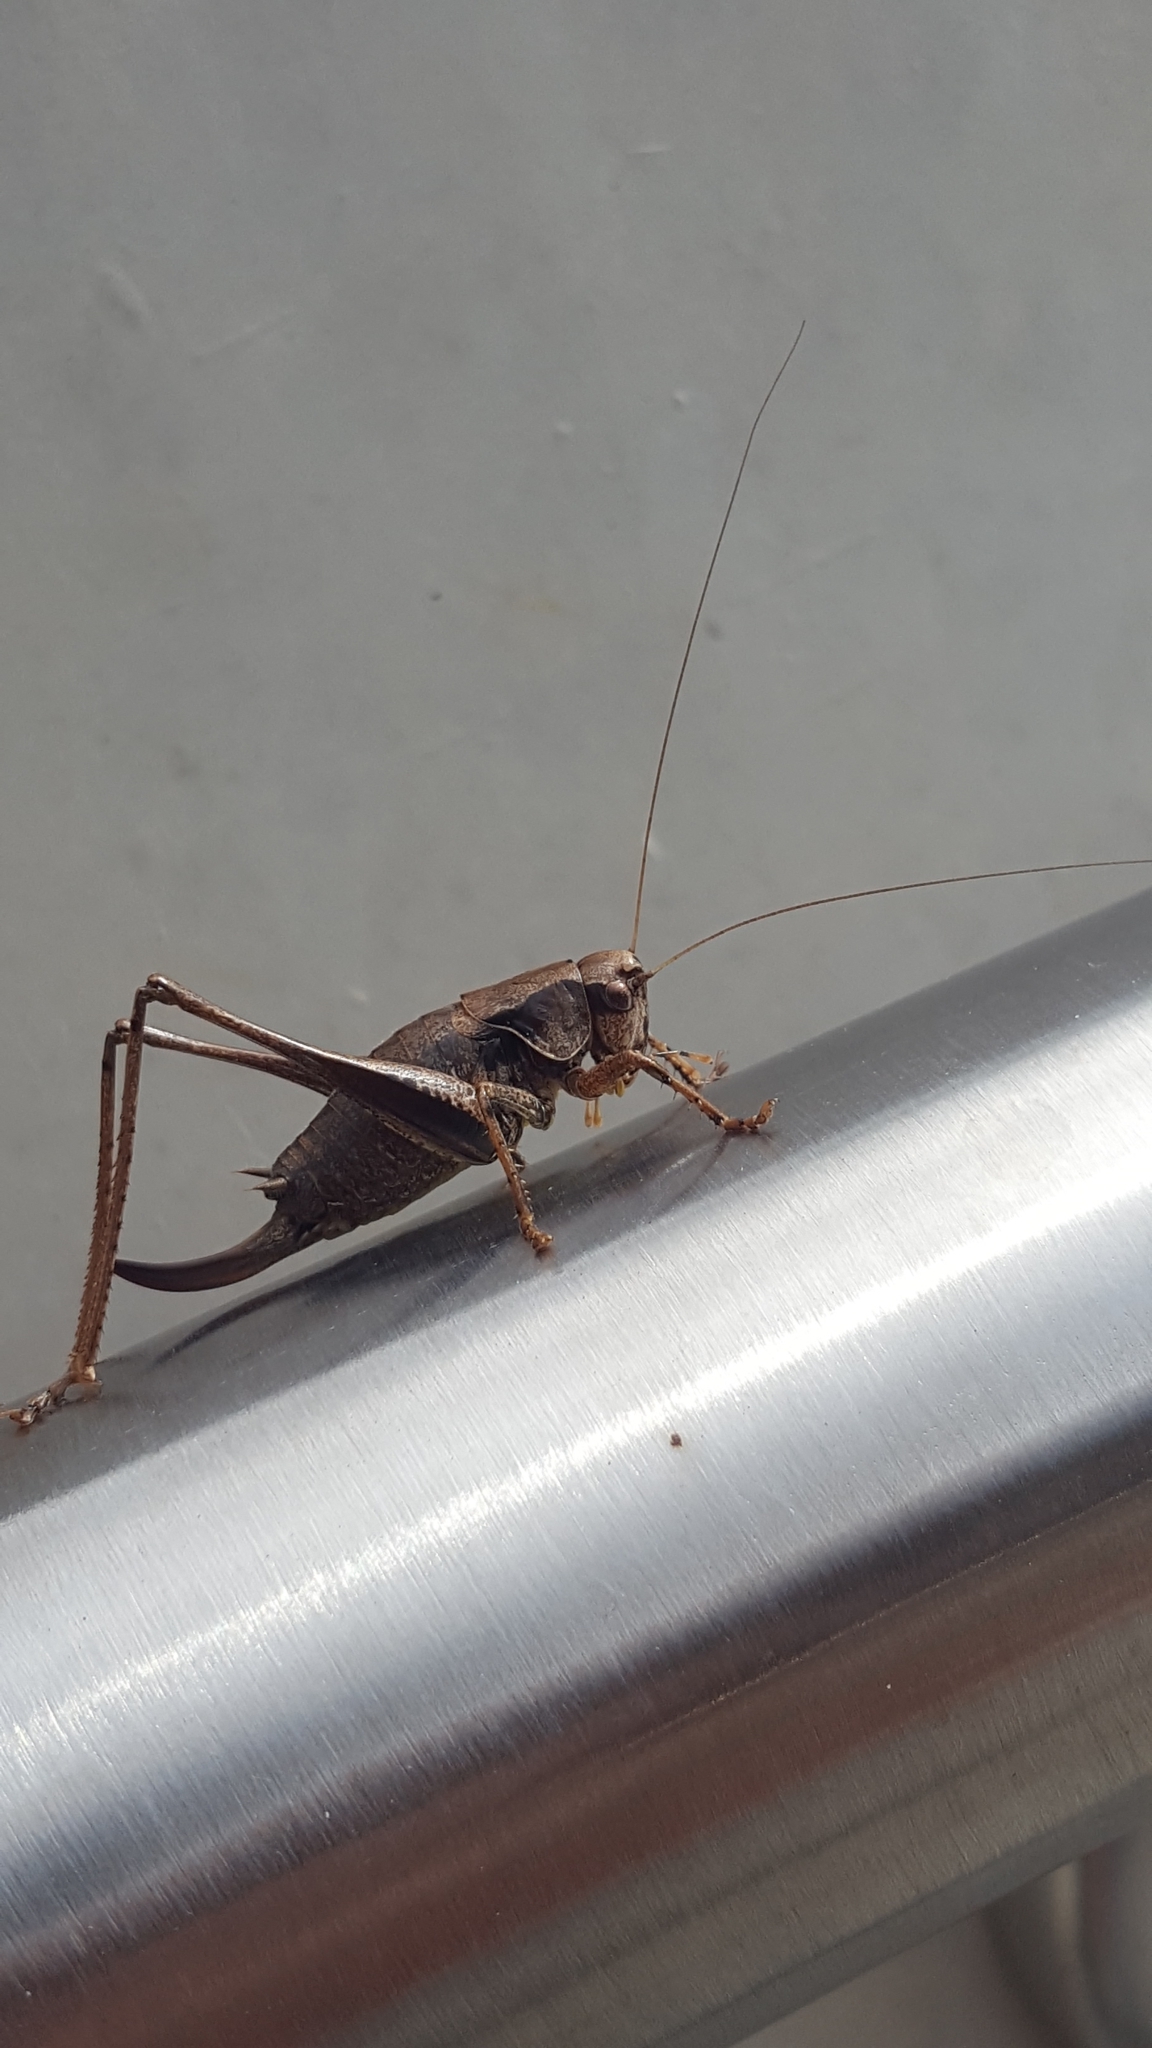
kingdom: Animalia
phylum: Arthropoda
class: Insecta
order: Orthoptera
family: Tettigoniidae
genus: Pholidoptera
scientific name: Pholidoptera griseoaptera
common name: Dark bush-cricket
